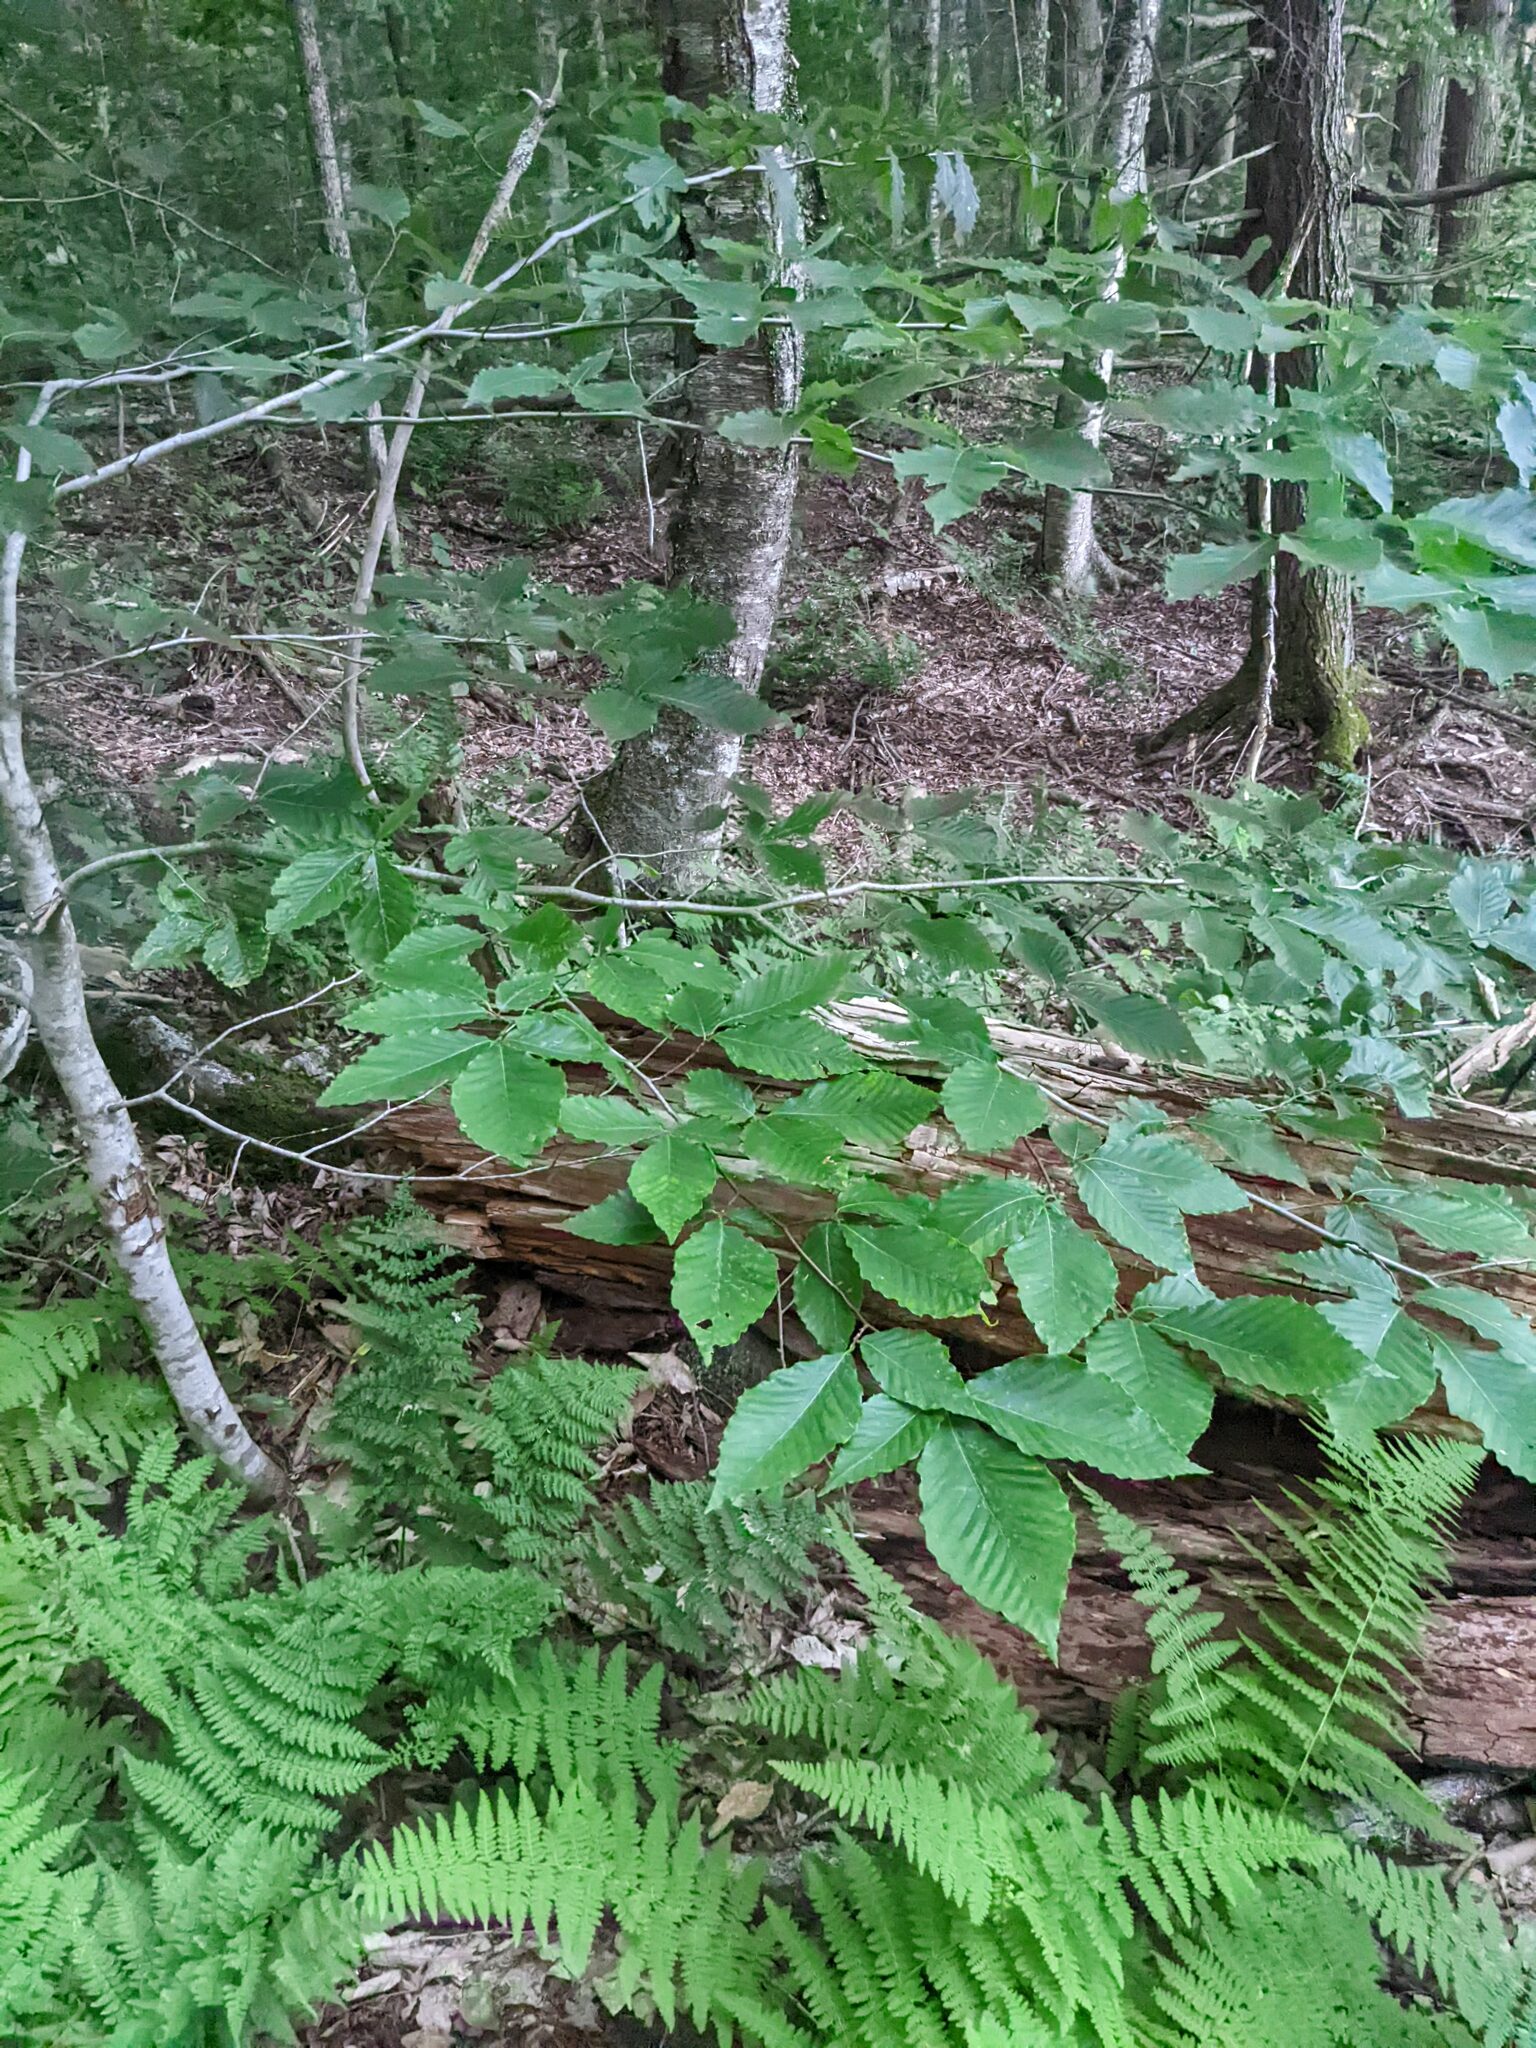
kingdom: Plantae
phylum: Tracheophyta
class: Magnoliopsida
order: Fagales
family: Fagaceae
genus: Fagus
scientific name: Fagus grandifolia
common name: American beech
